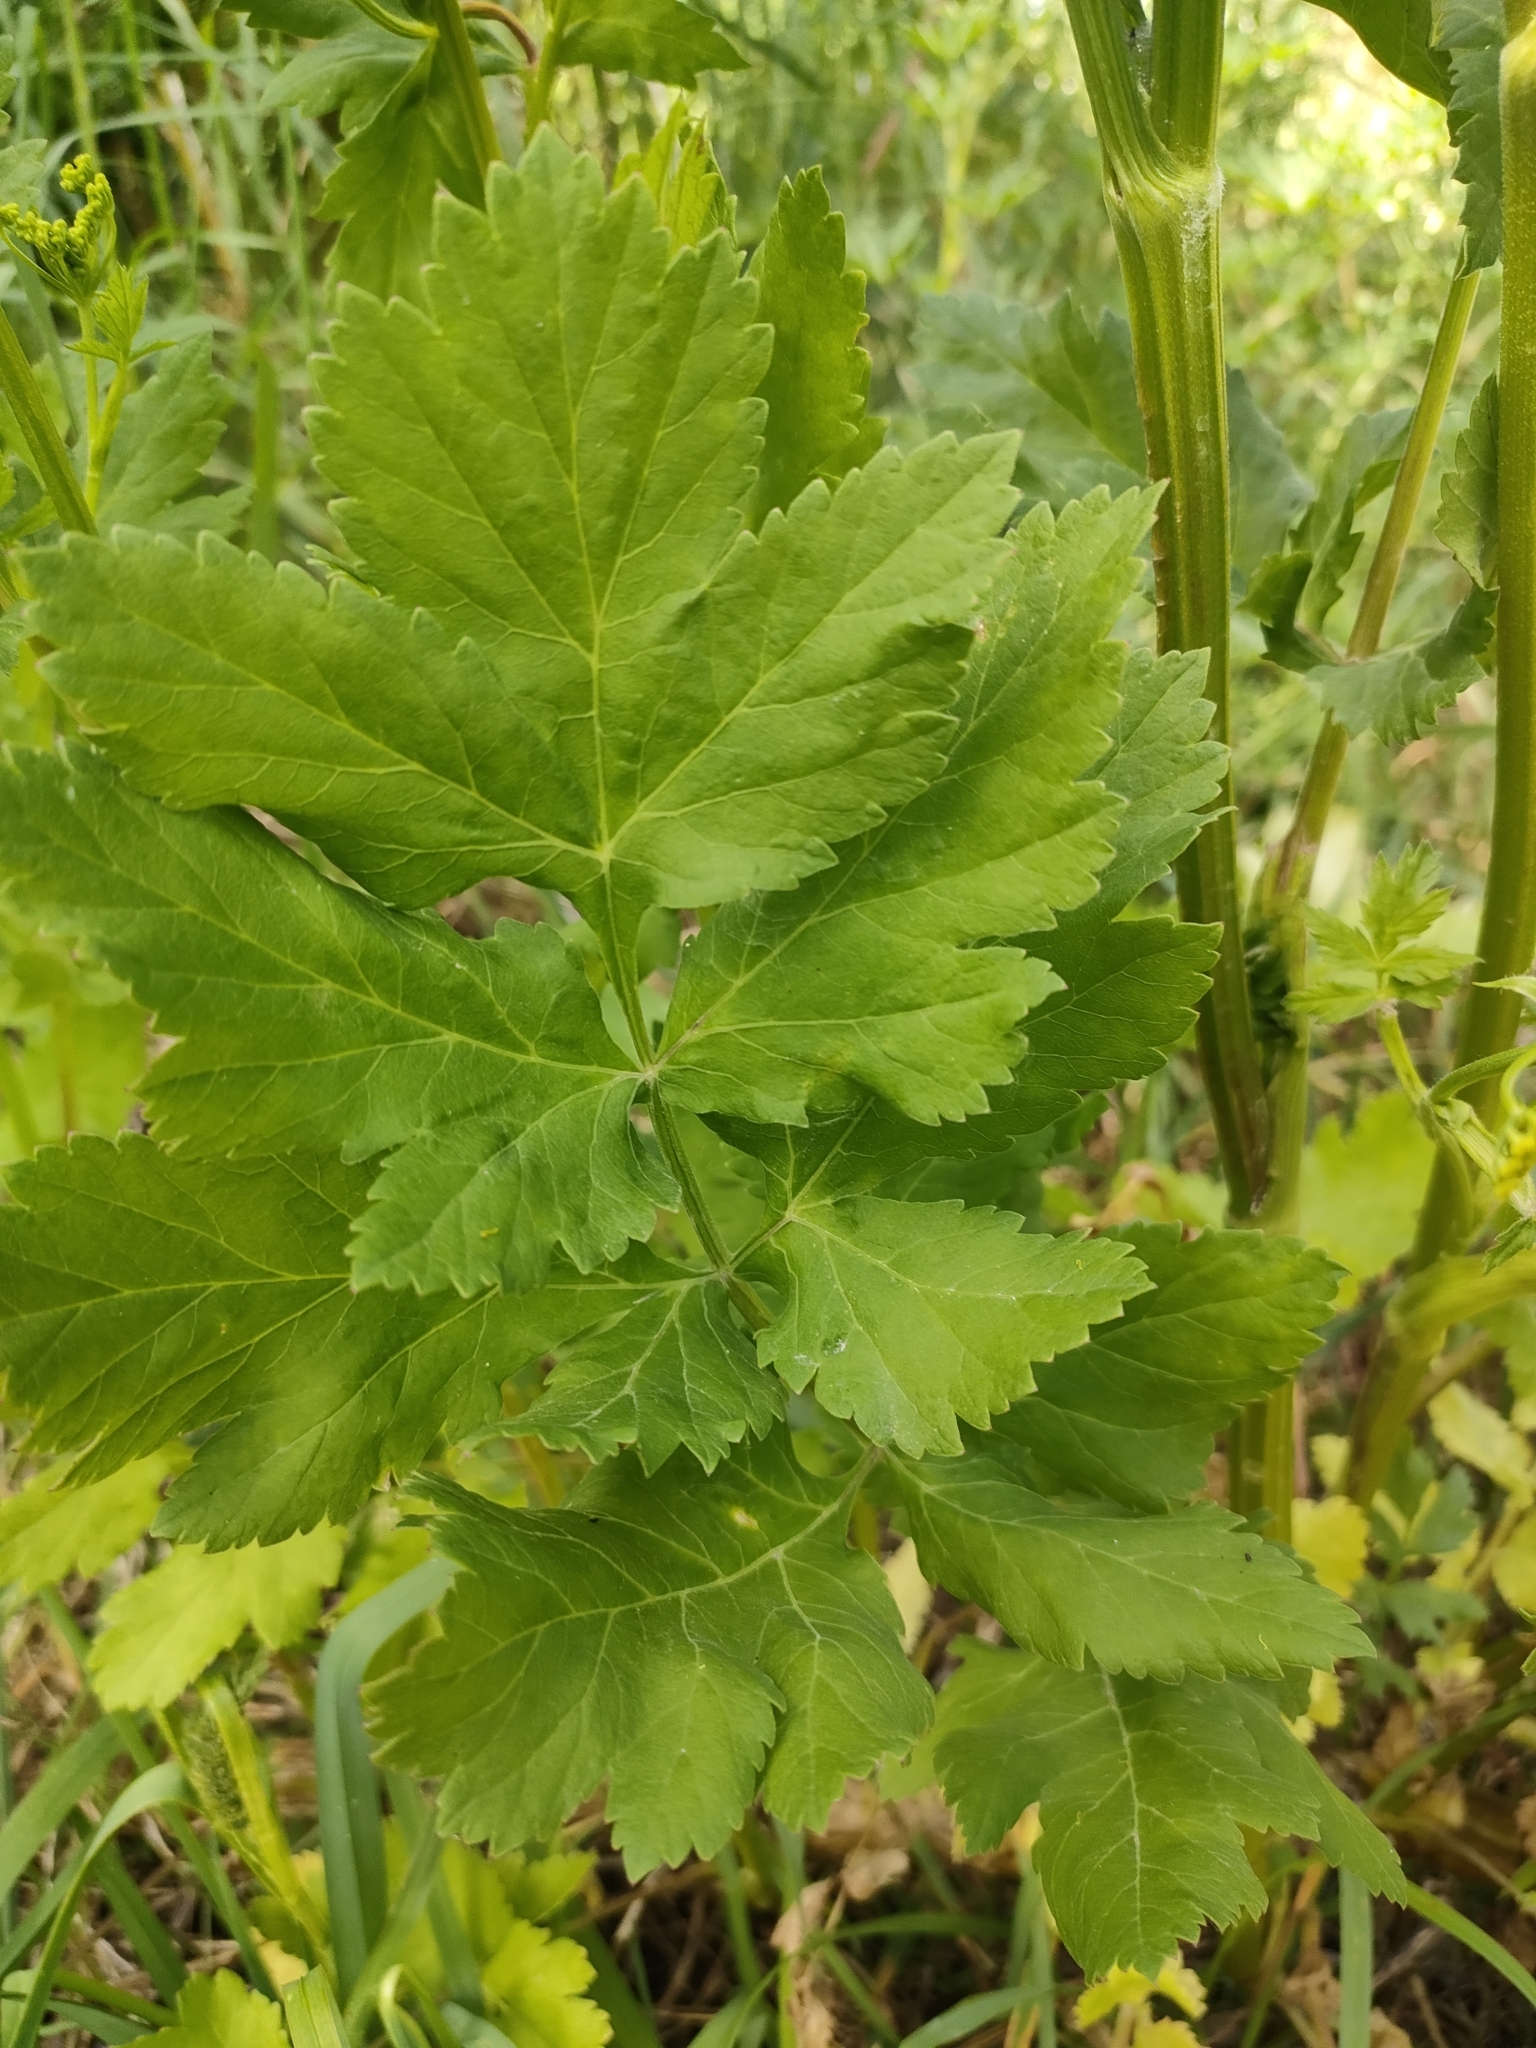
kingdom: Plantae
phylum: Tracheophyta
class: Magnoliopsida
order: Apiales
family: Apiaceae
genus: Pastinaca
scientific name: Pastinaca sativa
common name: Wild parsnip
